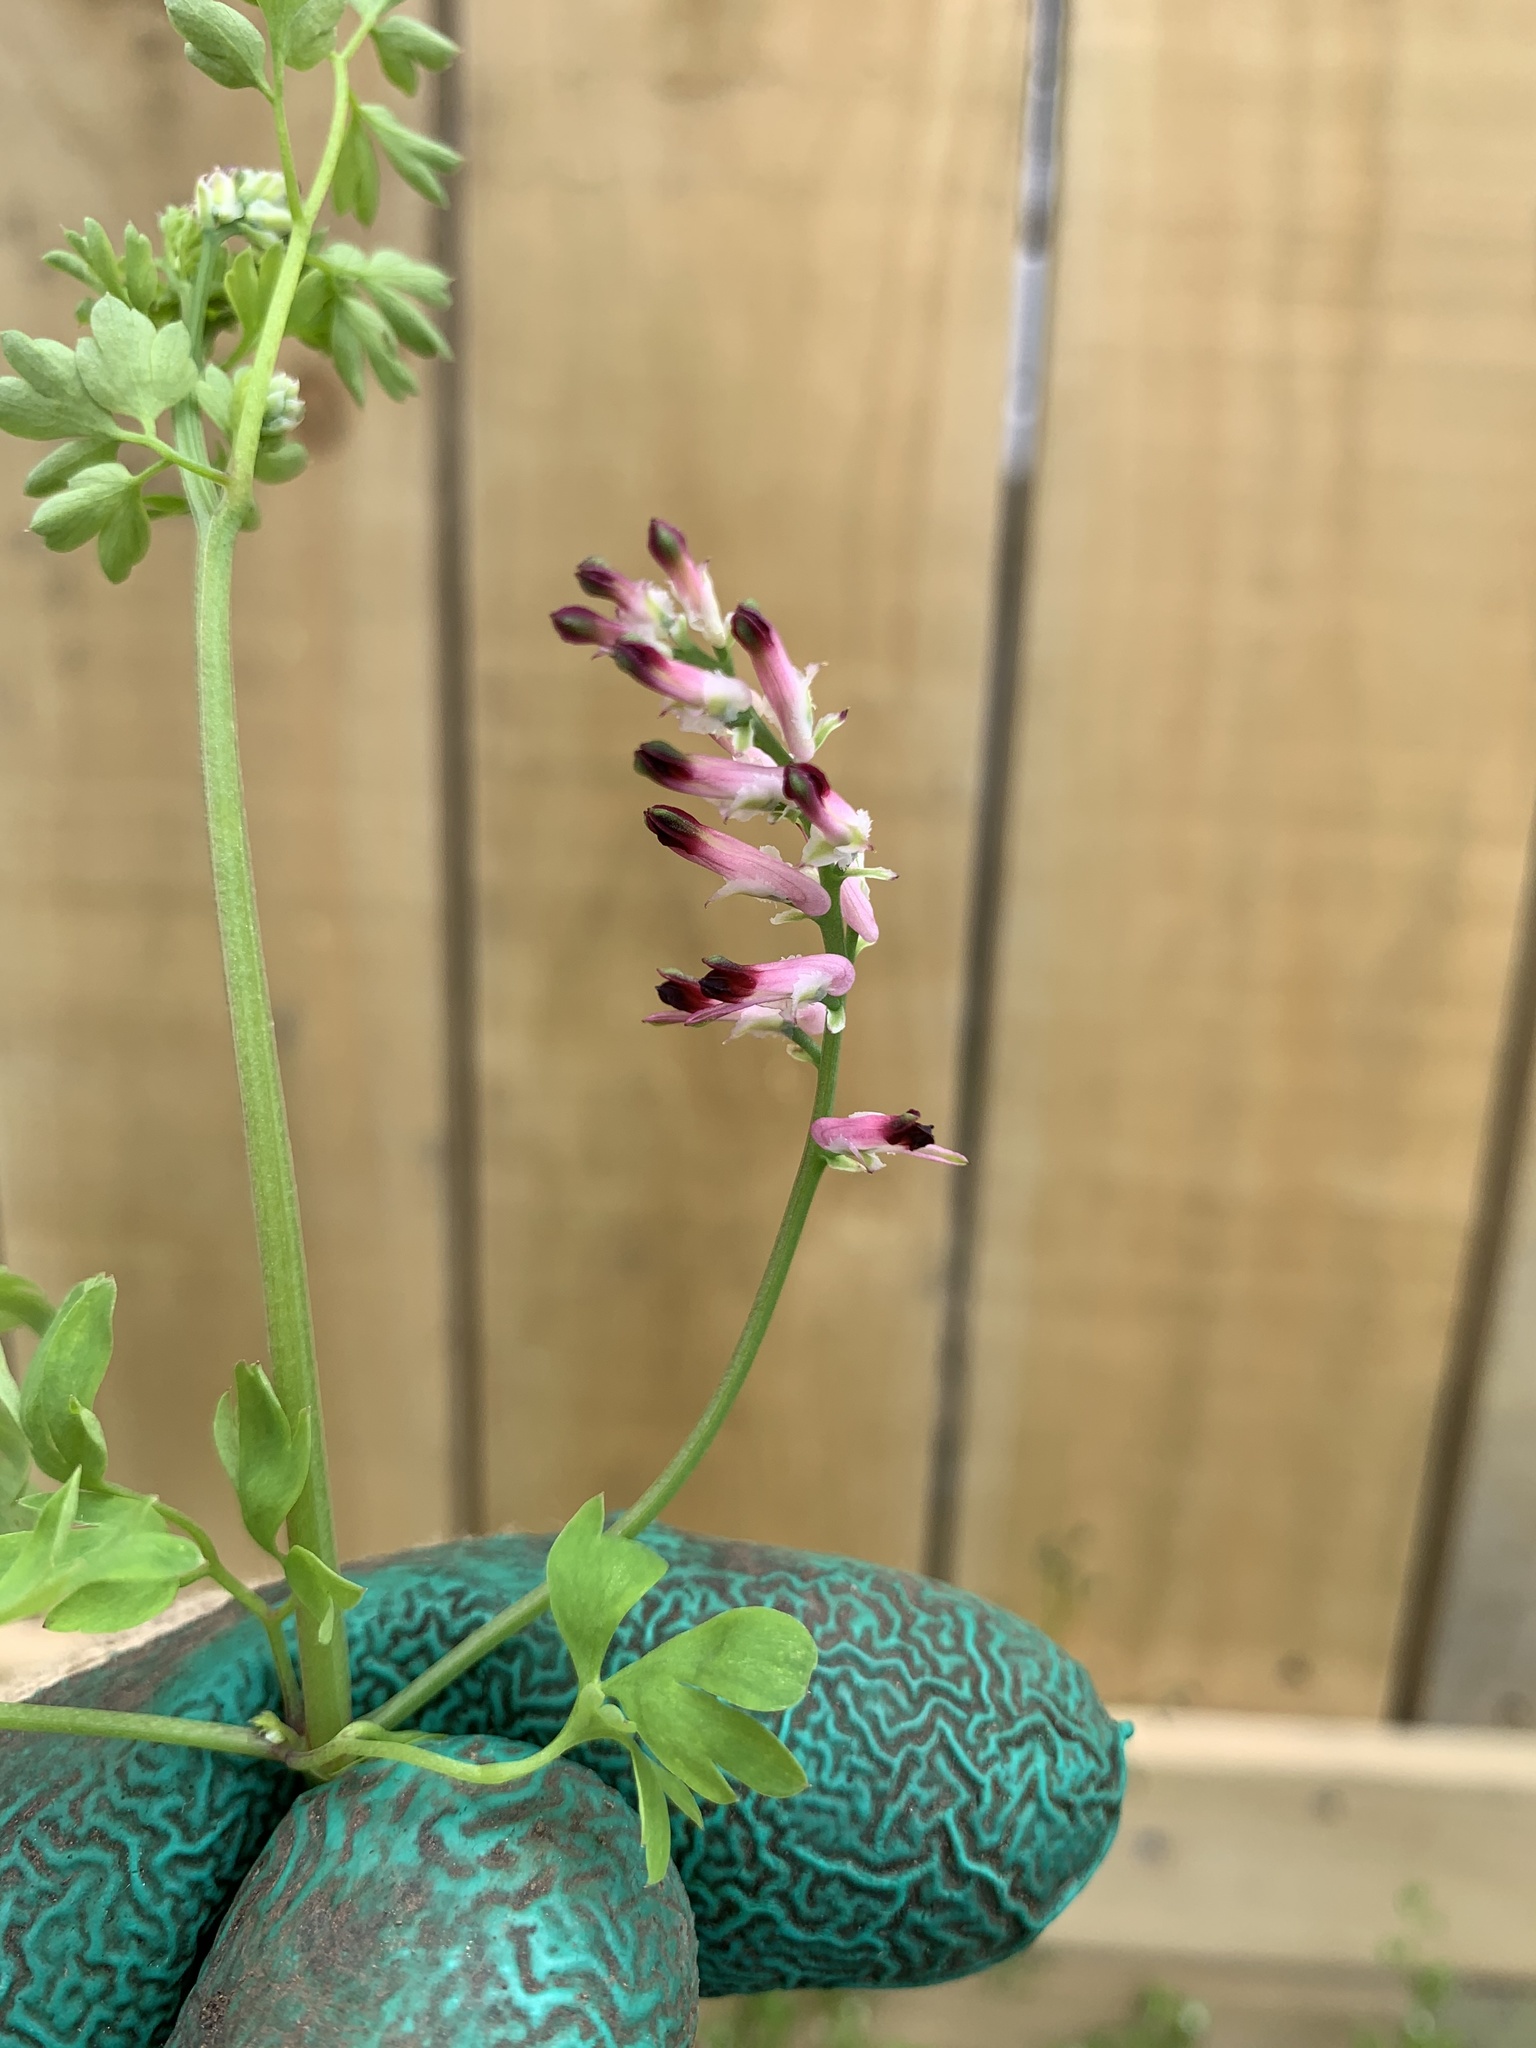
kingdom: Plantae
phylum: Tracheophyta
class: Magnoliopsida
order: Ranunculales
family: Papaveraceae
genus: Fumaria
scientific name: Fumaria muralis
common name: Common ramping-fumitory
